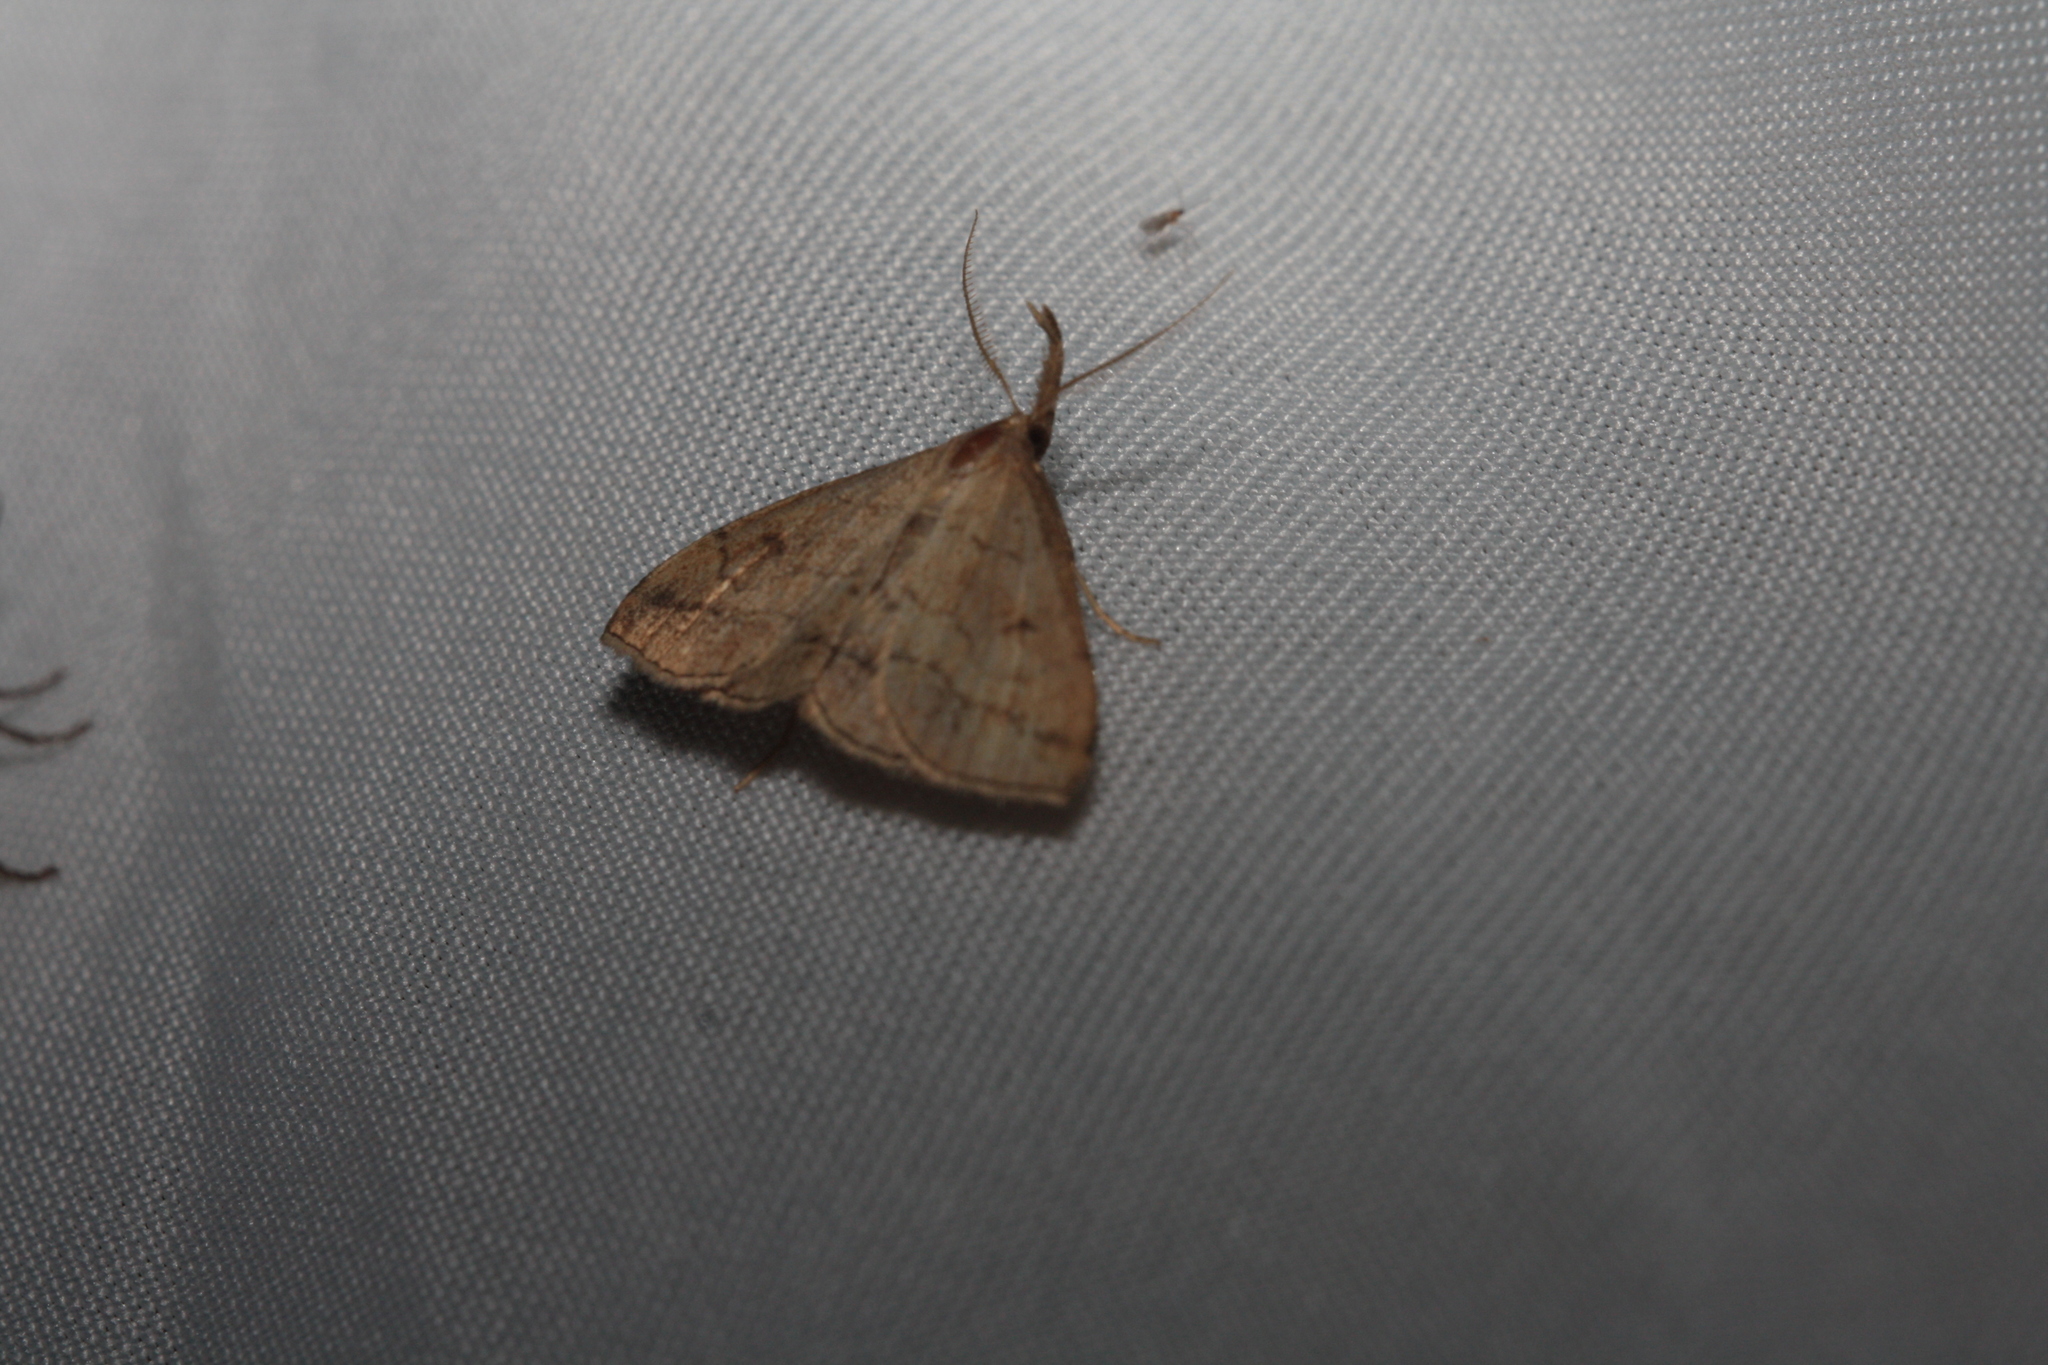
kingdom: Animalia
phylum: Arthropoda
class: Insecta
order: Lepidoptera
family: Erebidae
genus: Polypogon
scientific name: Polypogon tentacularia
